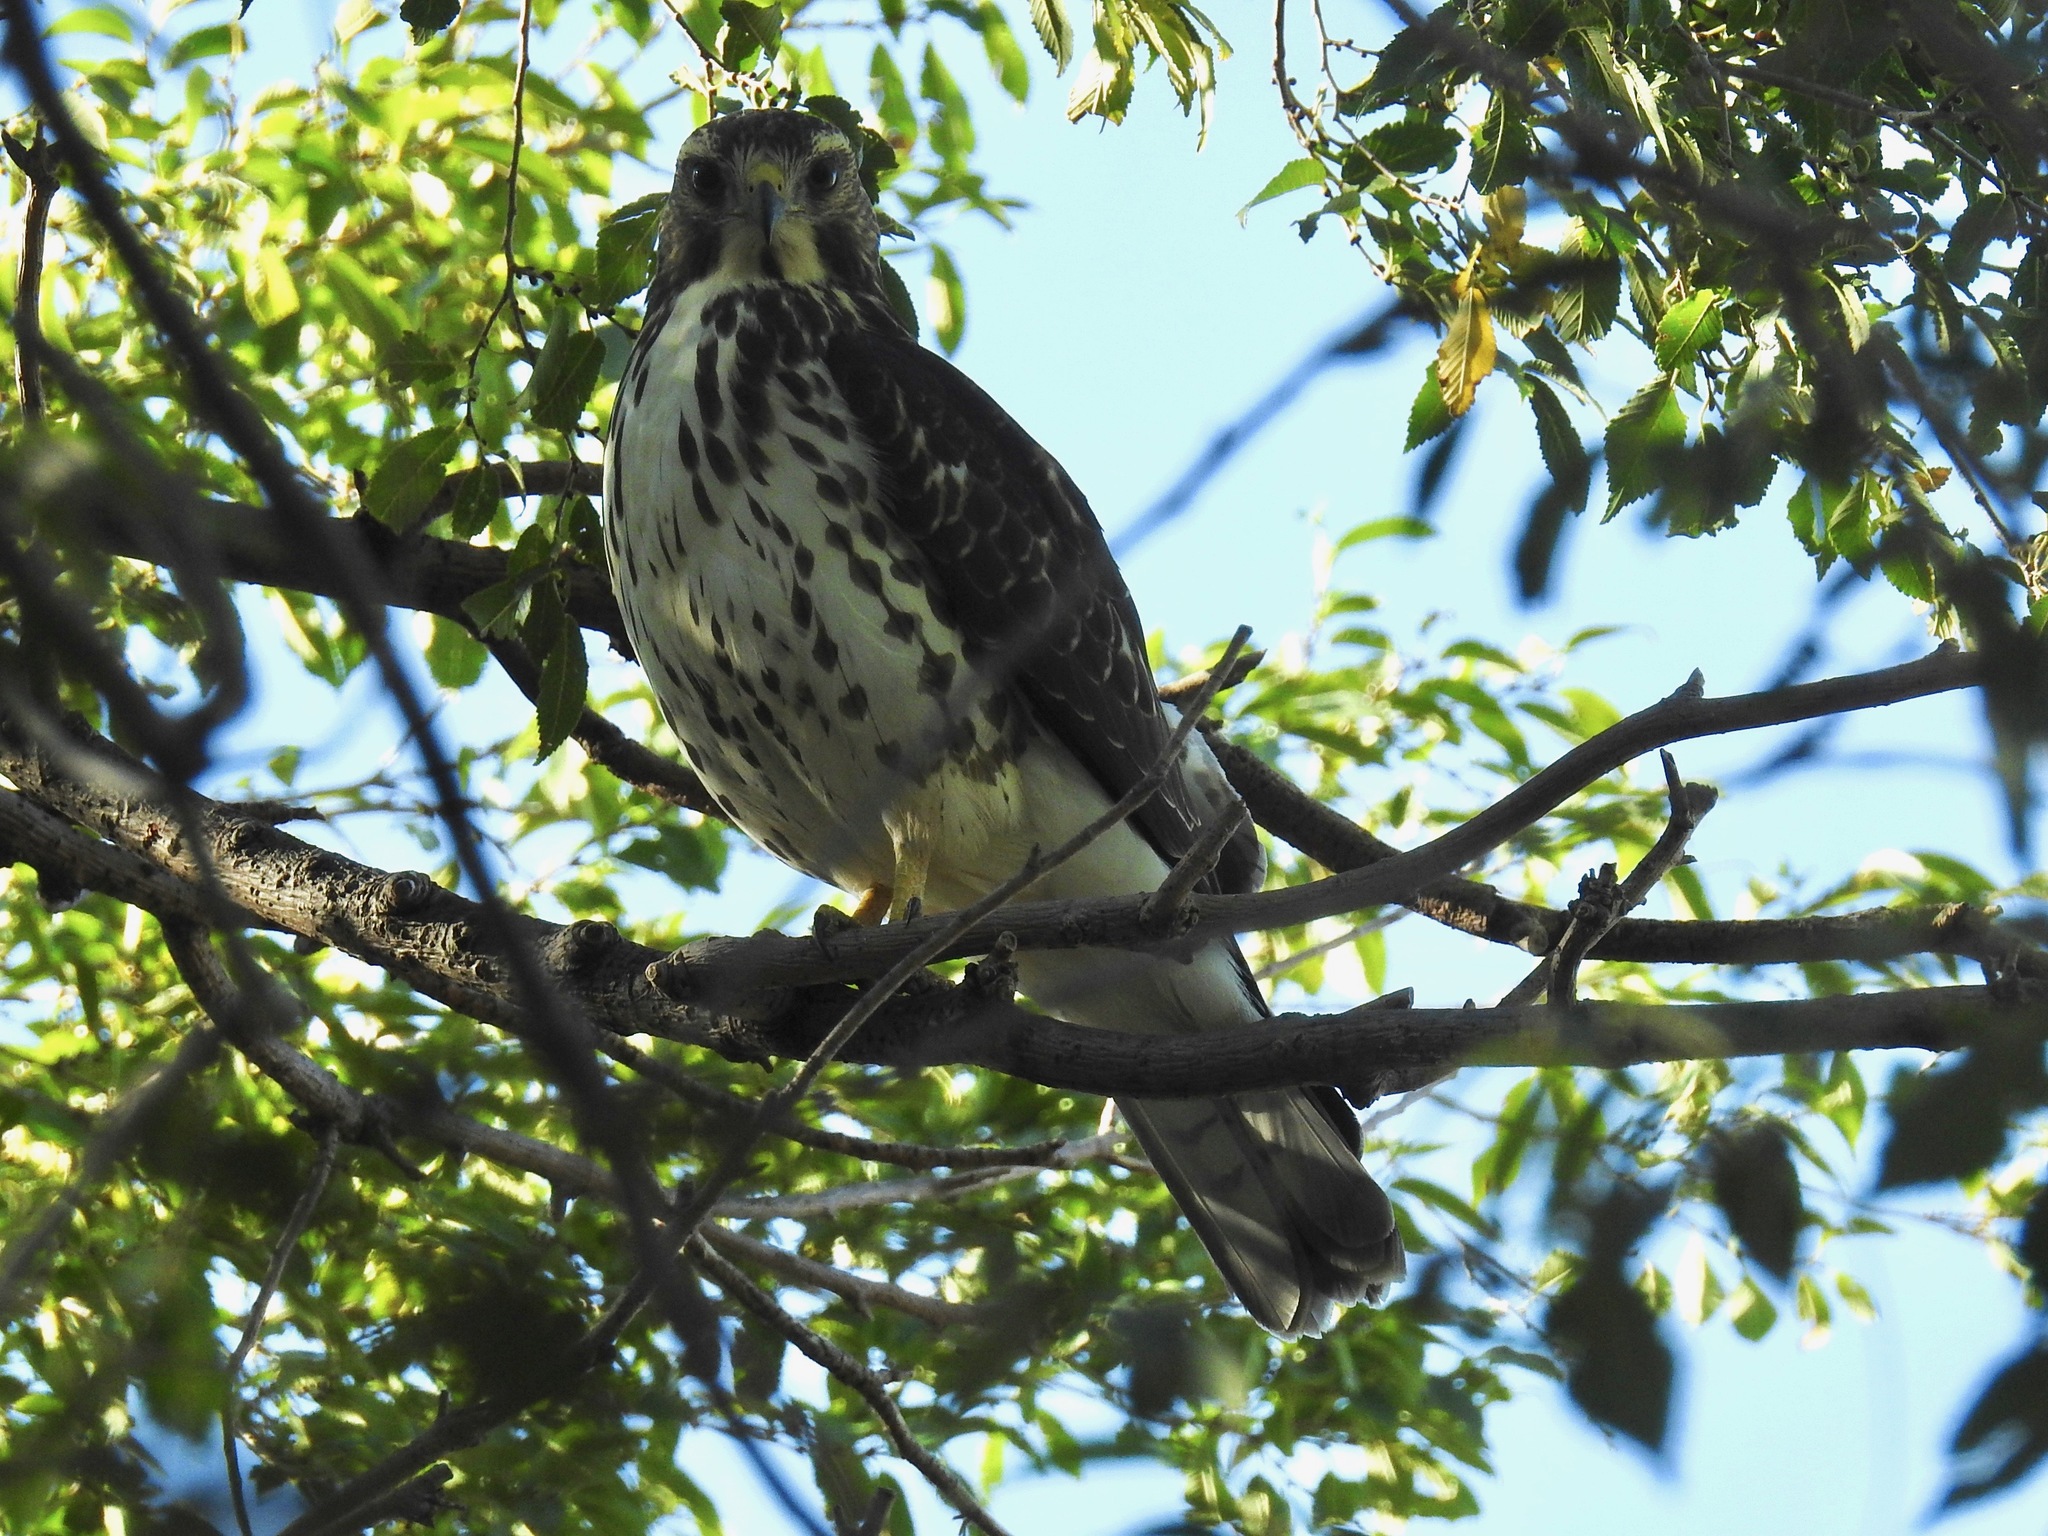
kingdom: Animalia
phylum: Chordata
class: Aves
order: Accipitriformes
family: Accipitridae
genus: Buteo
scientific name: Buteo platypterus
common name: Broad-winged hawk
